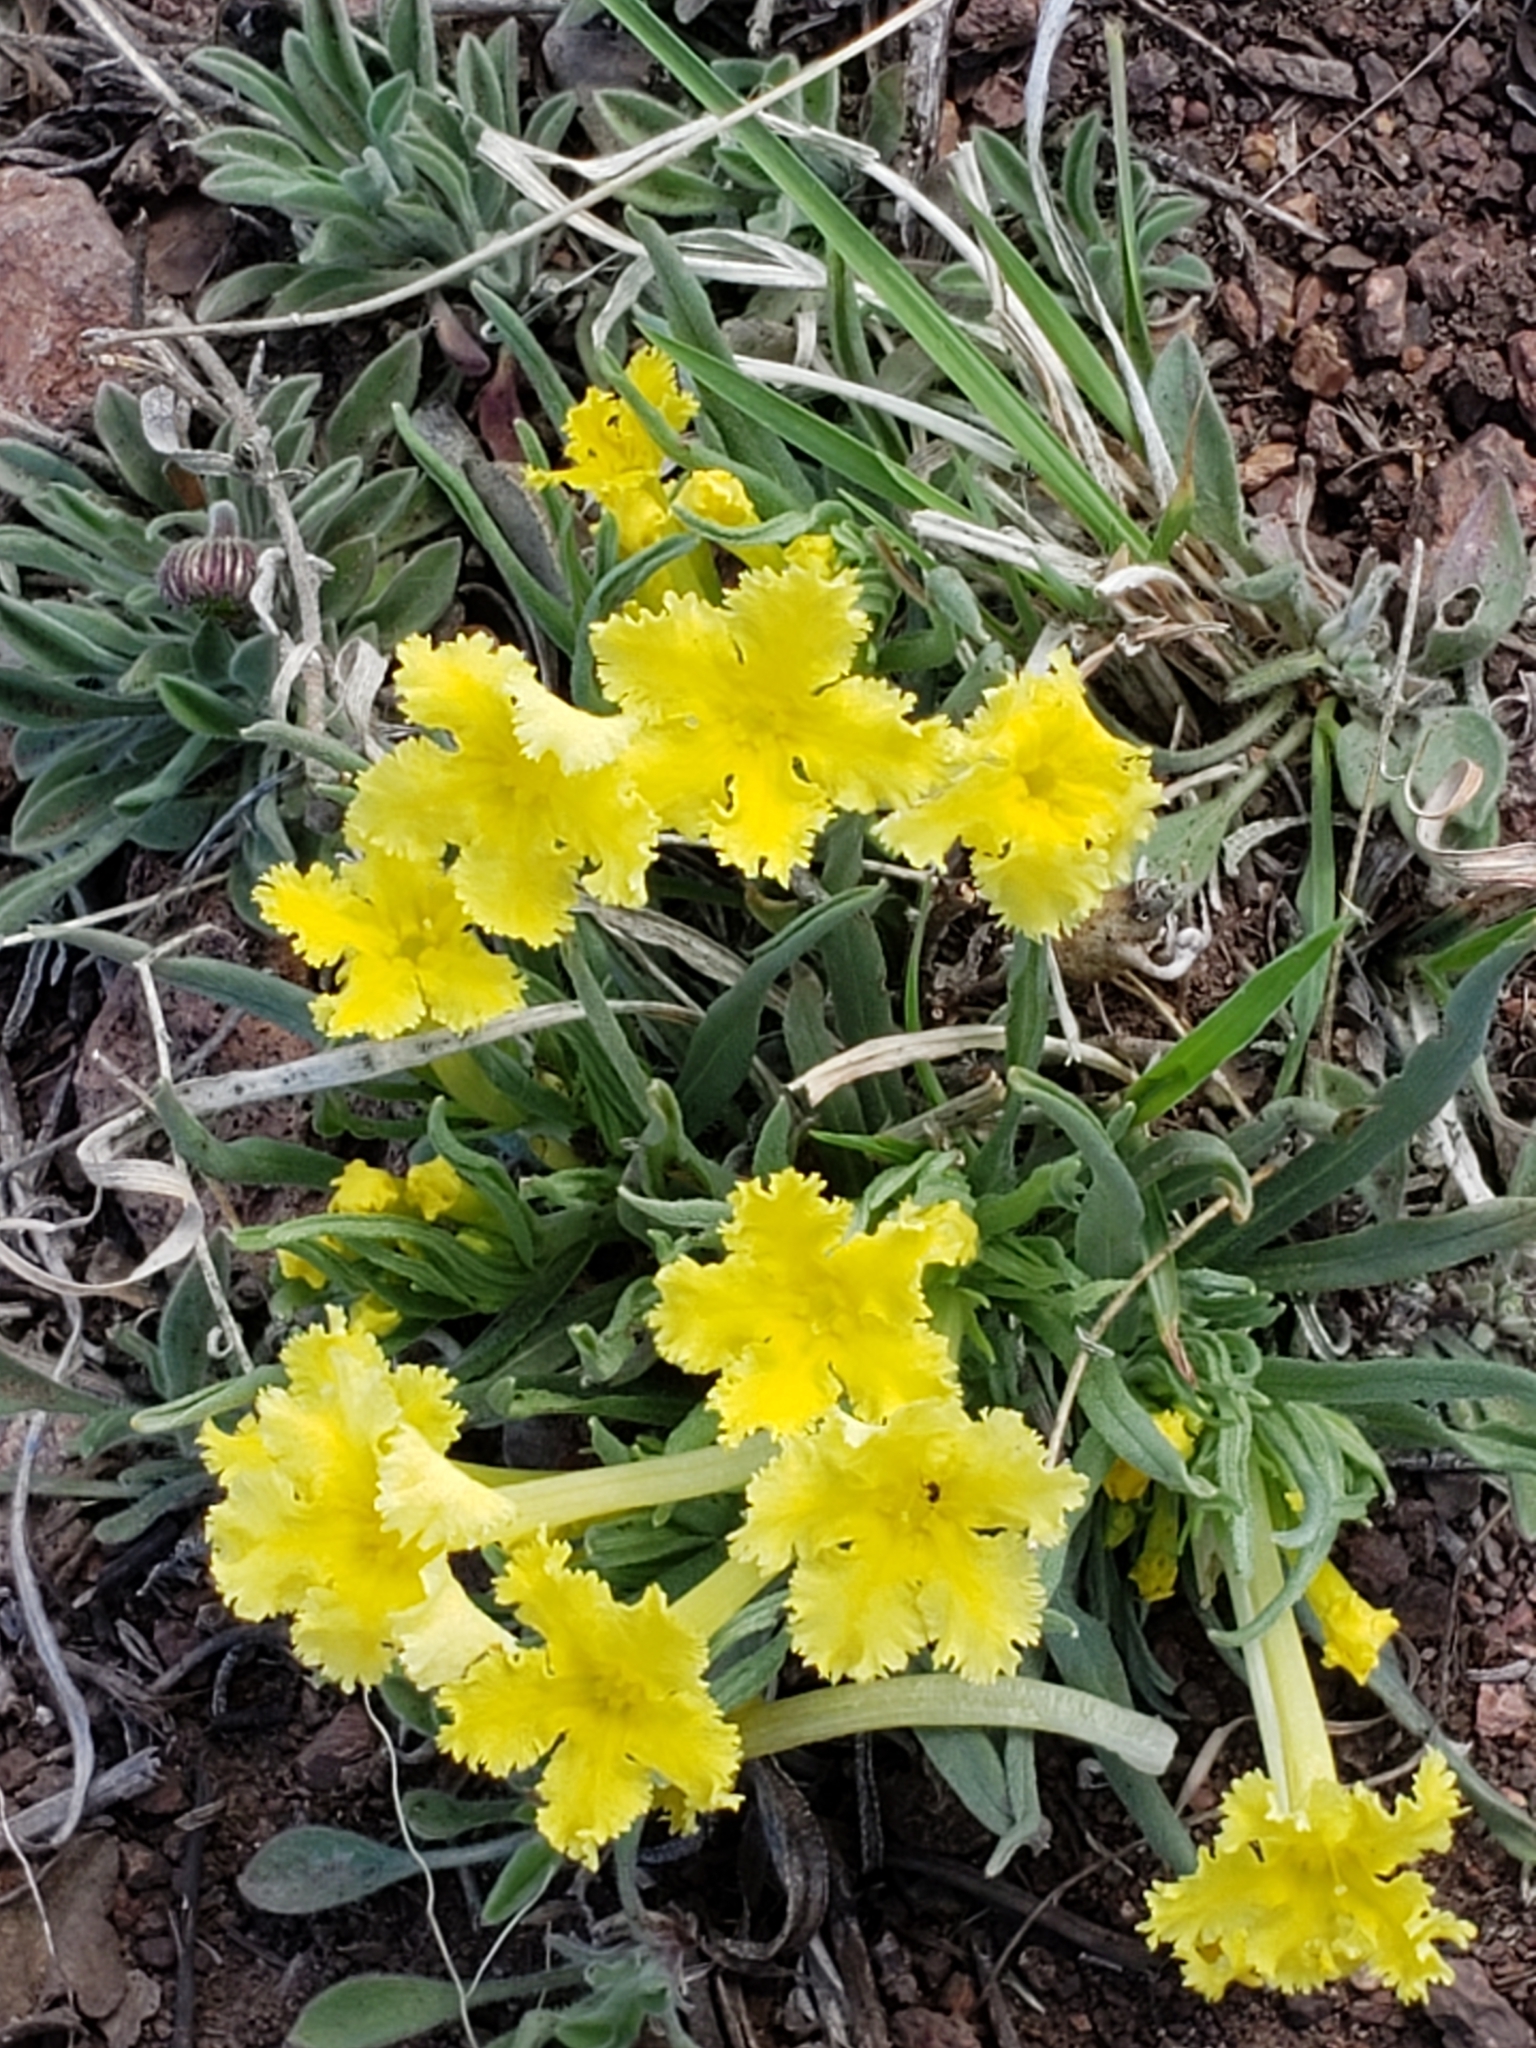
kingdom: Plantae
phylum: Tracheophyta
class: Magnoliopsida
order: Boraginales
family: Boraginaceae
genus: Lithospermum
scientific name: Lithospermum incisum
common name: Fringed gromwell
